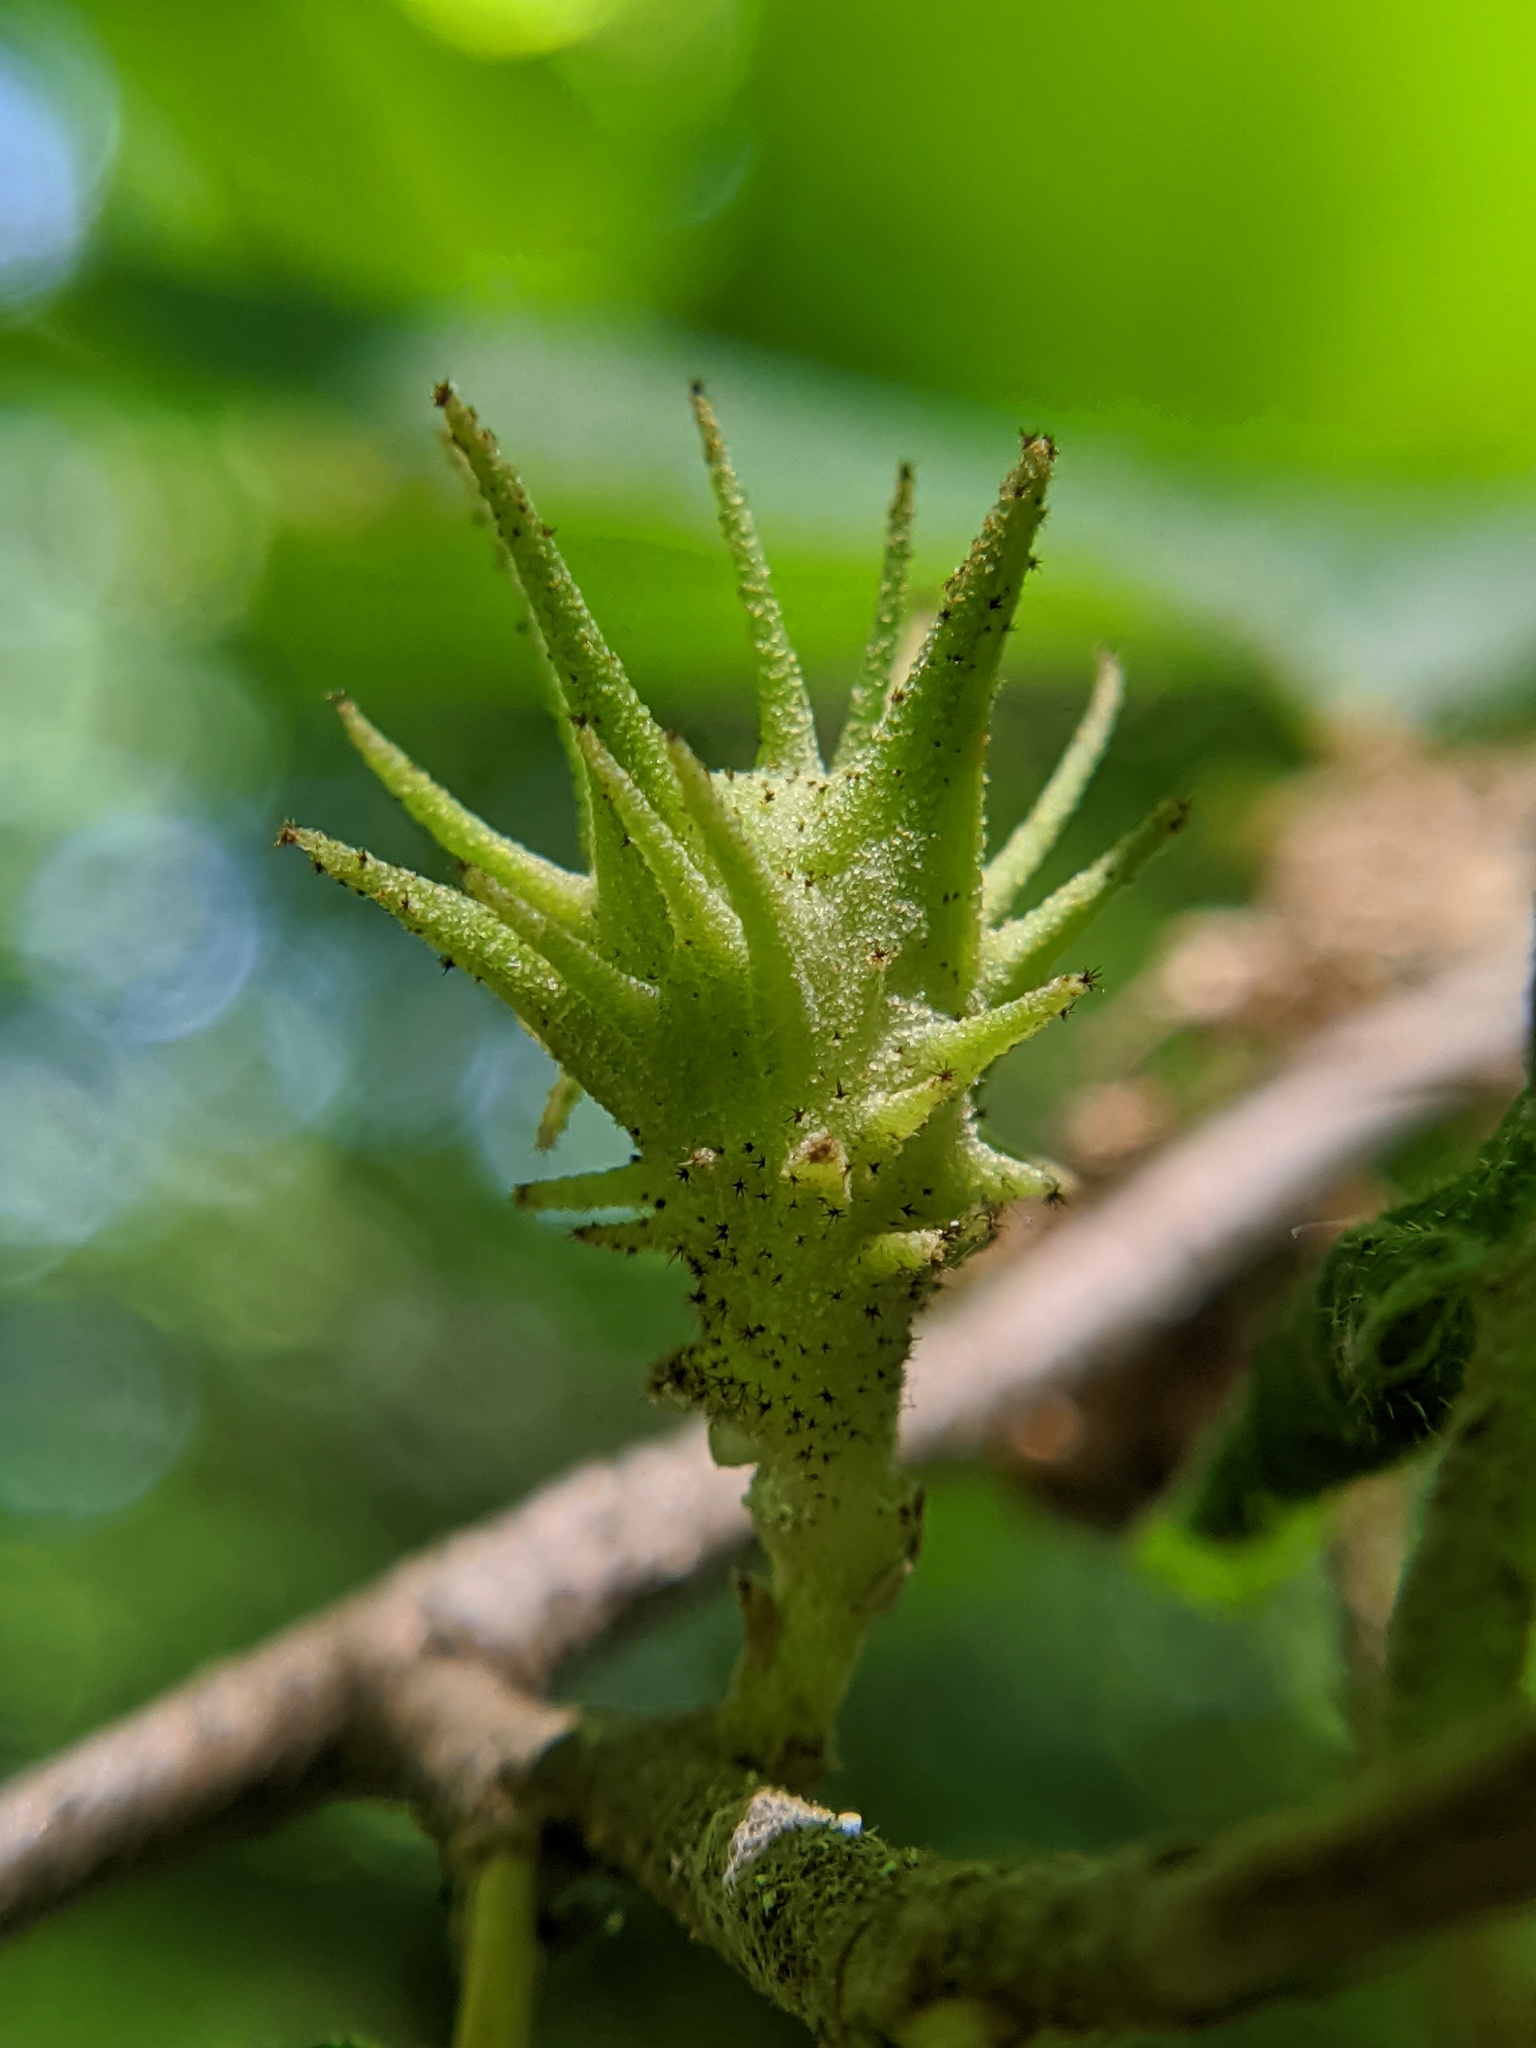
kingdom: Animalia
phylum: Arthropoda
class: Insecta
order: Hemiptera
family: Aphididae
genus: Hamamelistes
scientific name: Hamamelistes spinosus
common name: Witch hazel gall aphid
